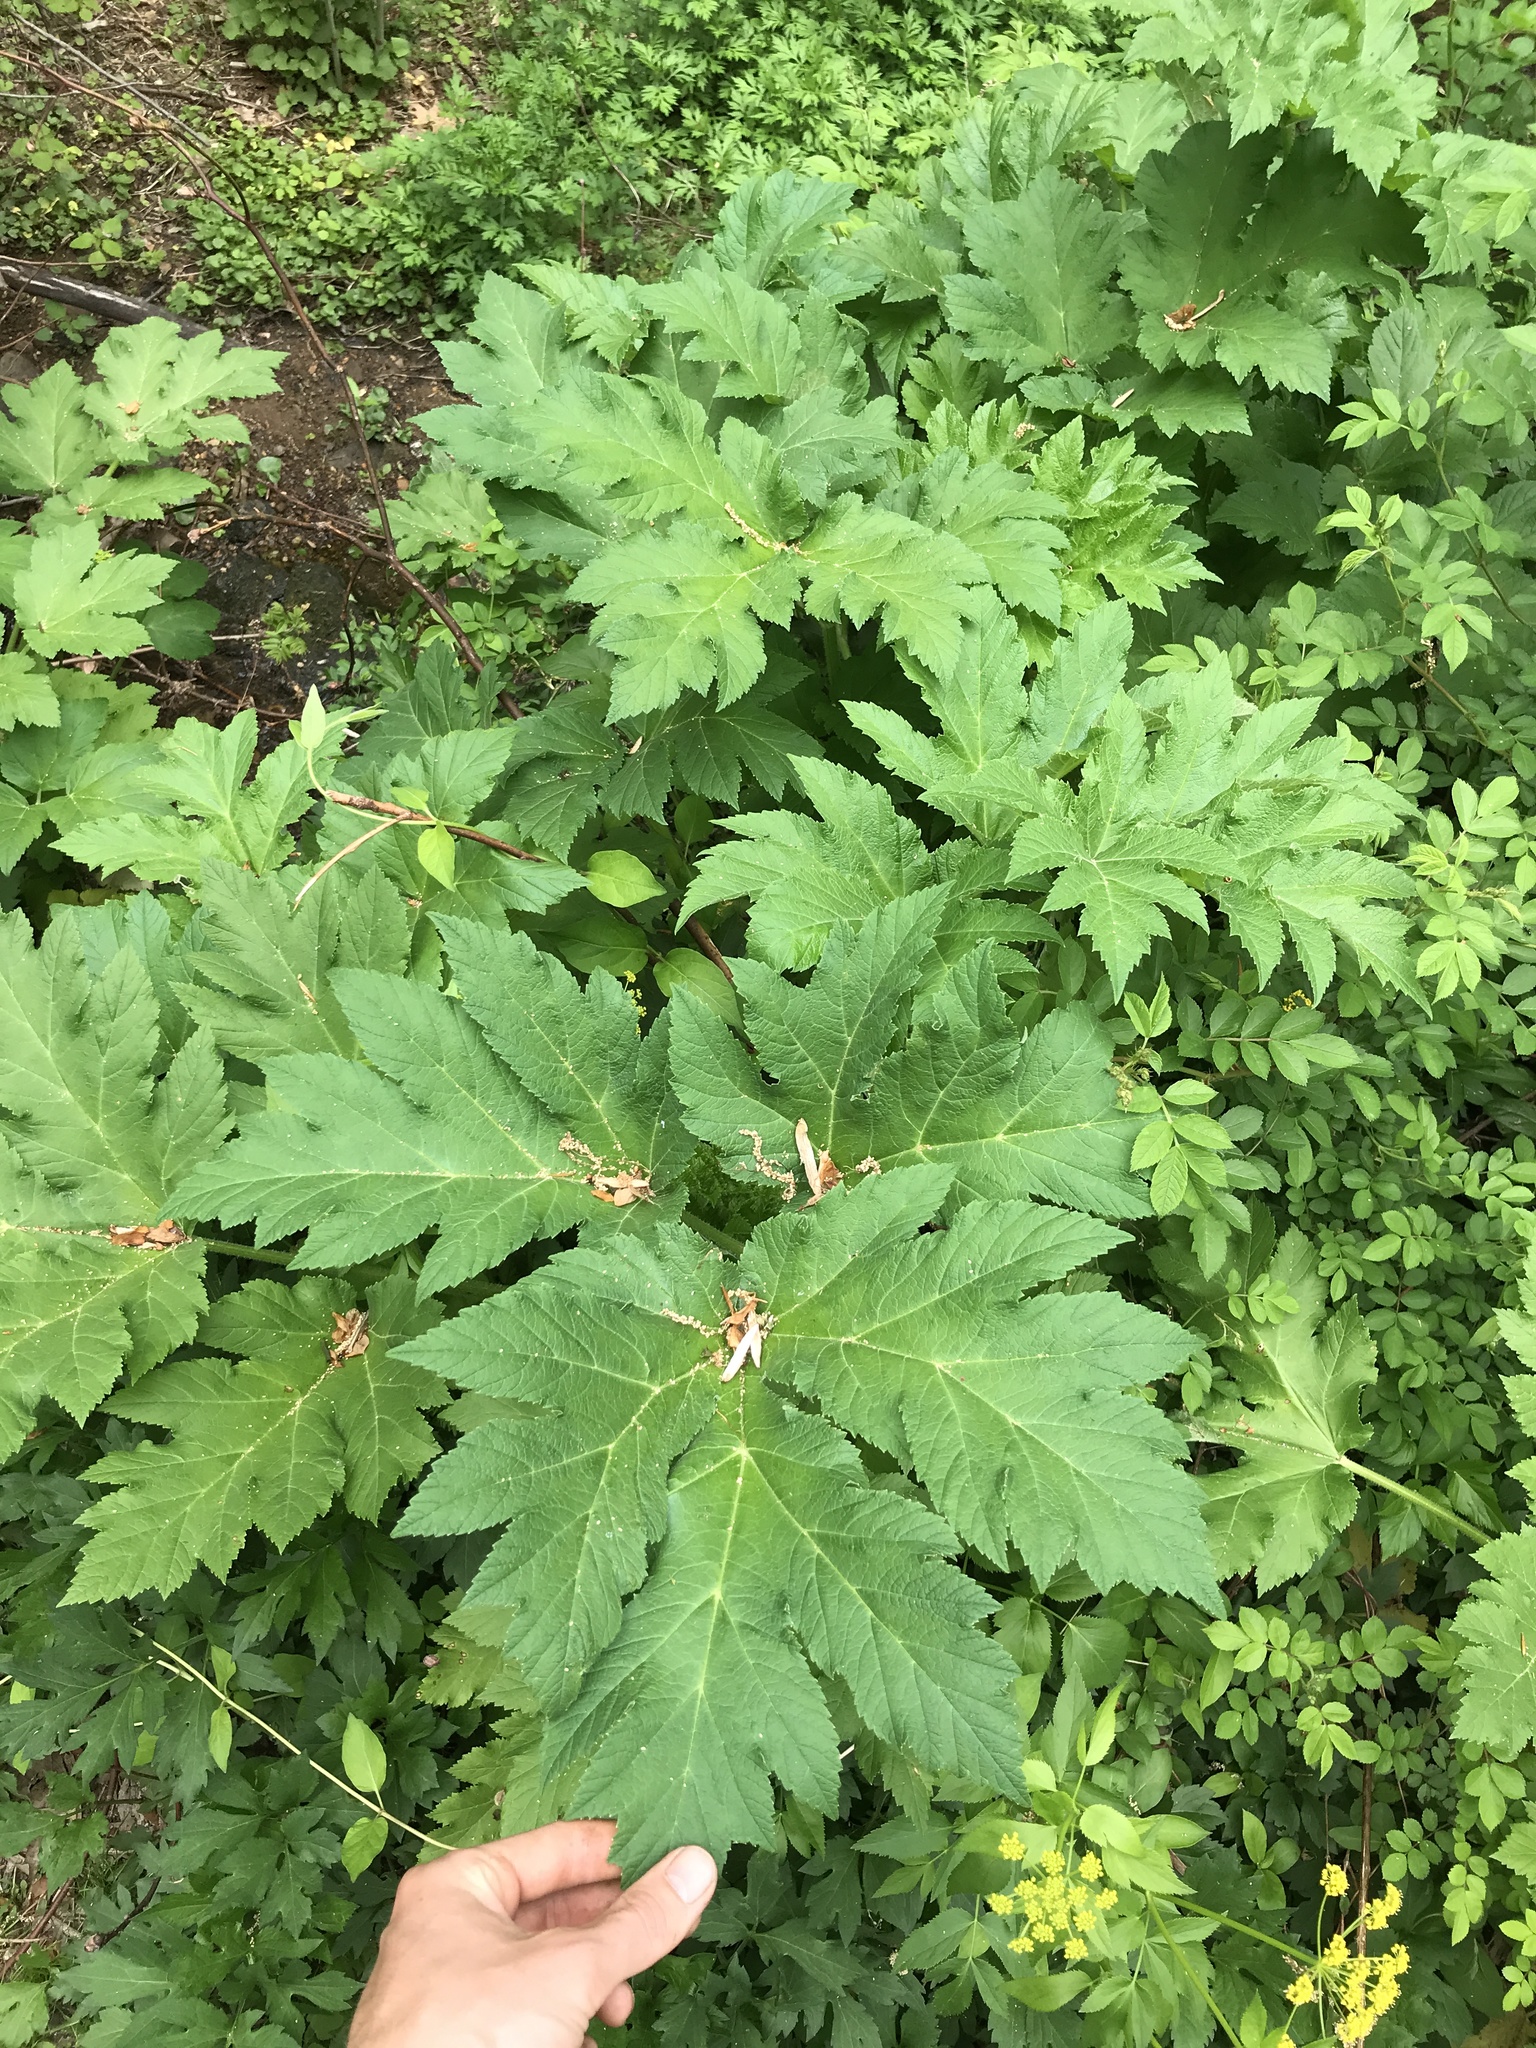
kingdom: Plantae
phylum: Tracheophyta
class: Magnoliopsida
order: Apiales
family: Apiaceae
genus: Heracleum
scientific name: Heracleum maximum
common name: American cow parsnip
